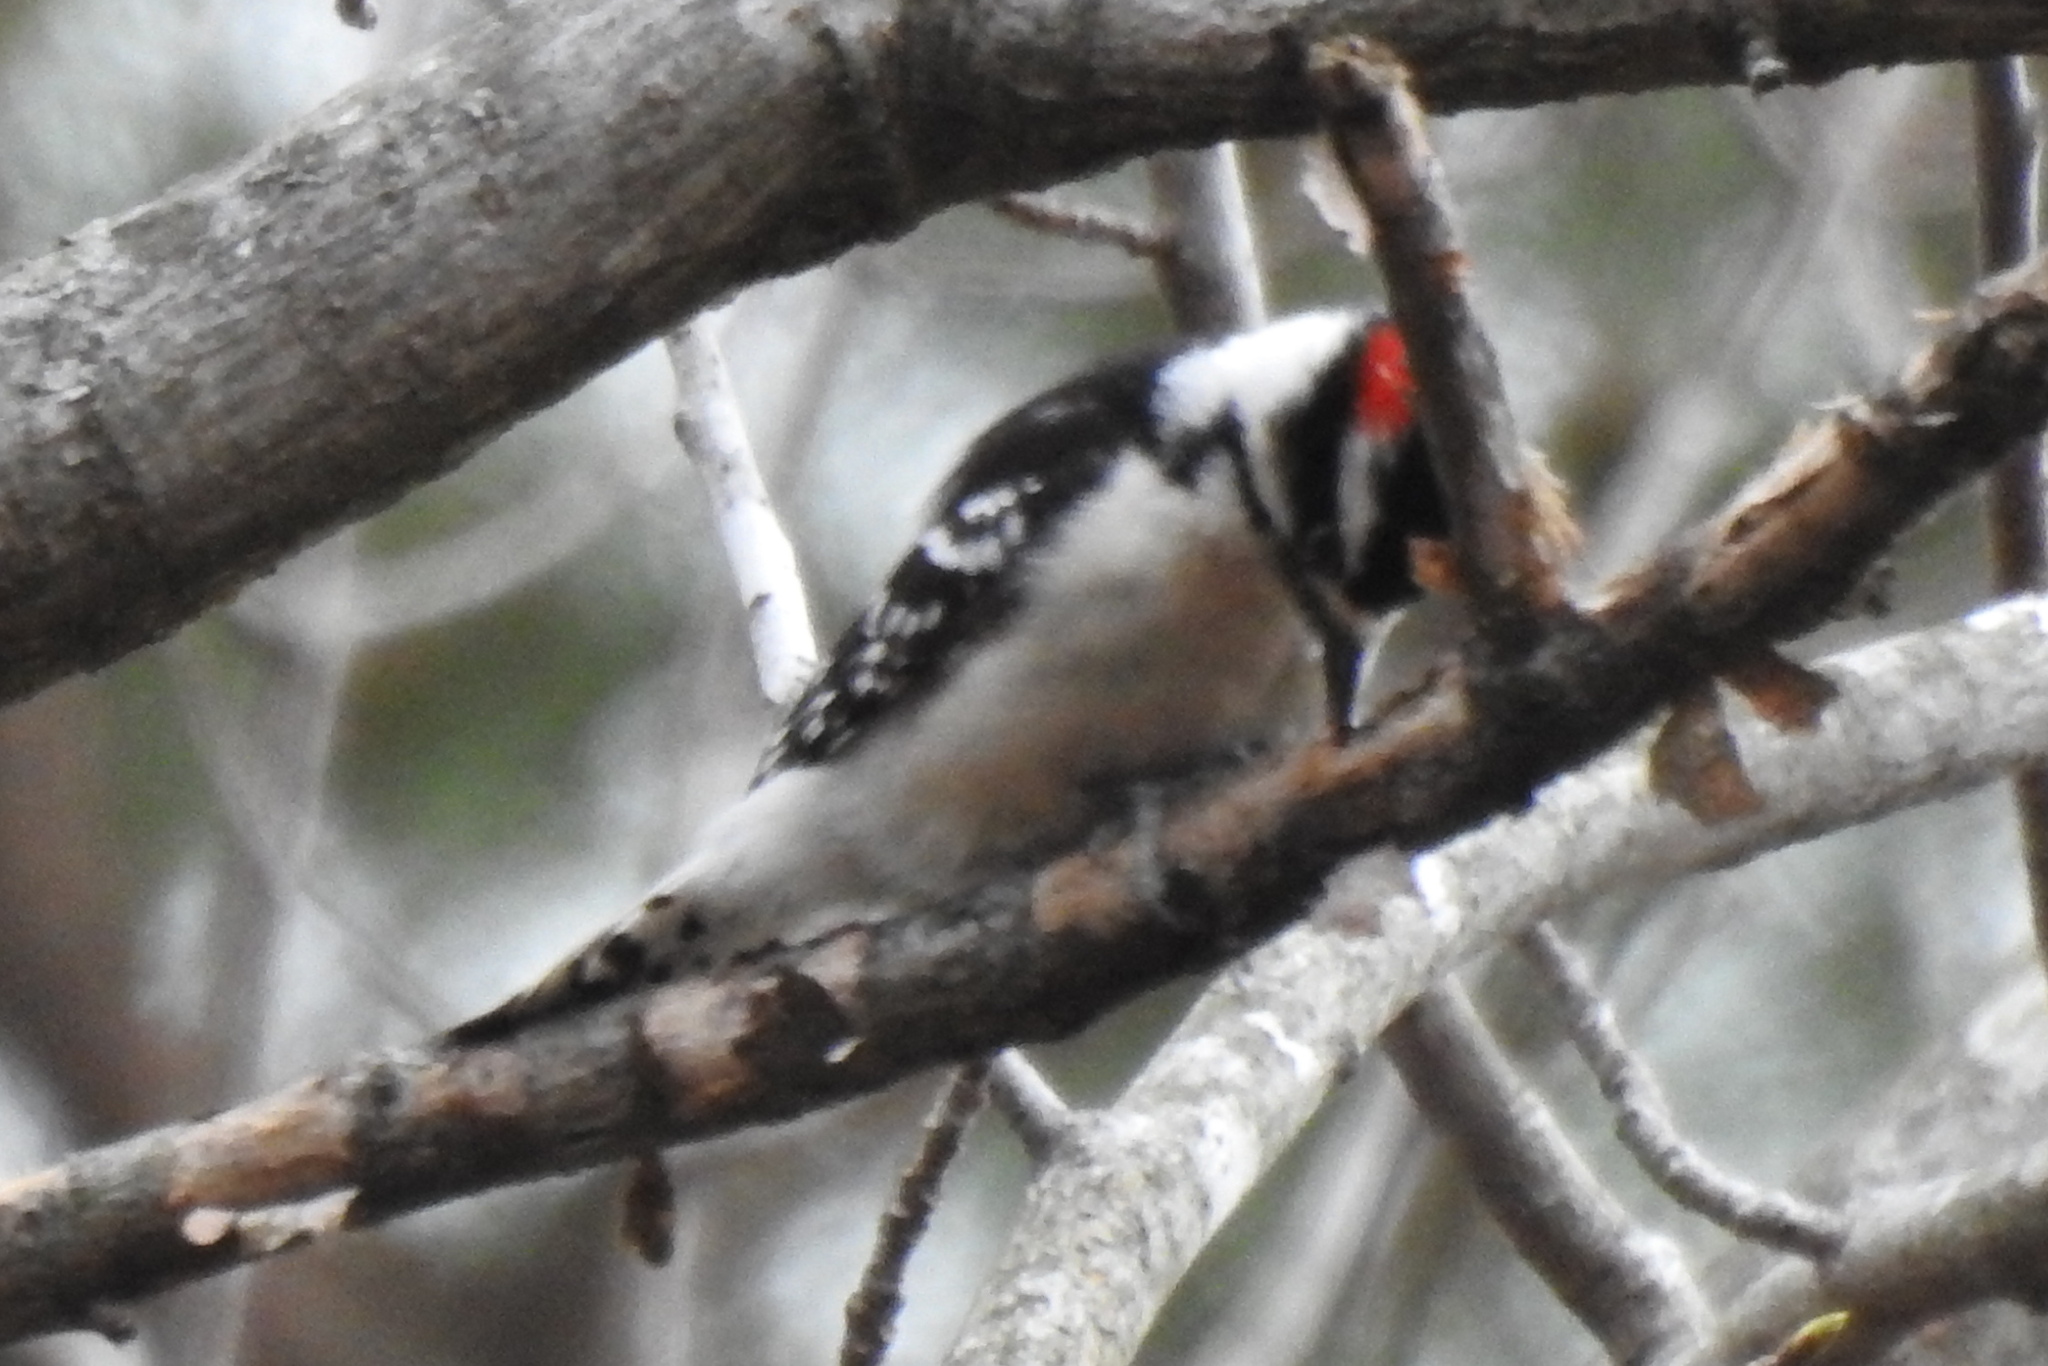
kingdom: Animalia
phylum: Chordata
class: Aves
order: Piciformes
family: Picidae
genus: Dryobates
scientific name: Dryobates pubescens
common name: Downy woodpecker
